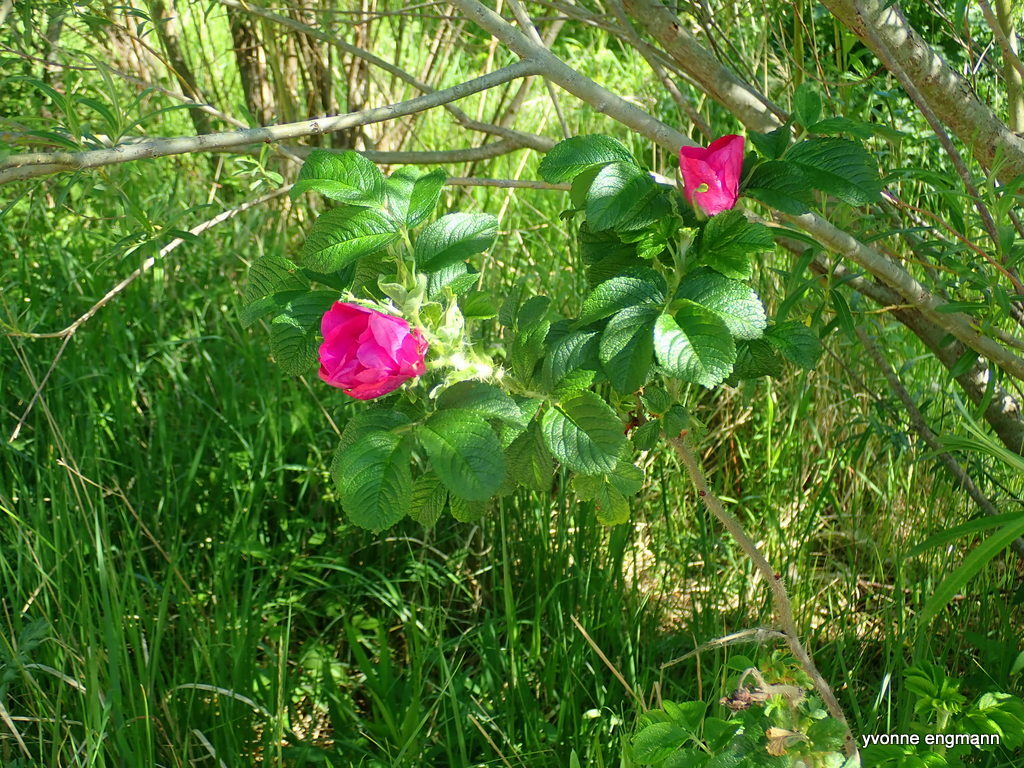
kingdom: Plantae
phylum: Tracheophyta
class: Magnoliopsida
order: Rosales
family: Rosaceae
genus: Rosa
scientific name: Rosa rugosa
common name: Japanese rose
